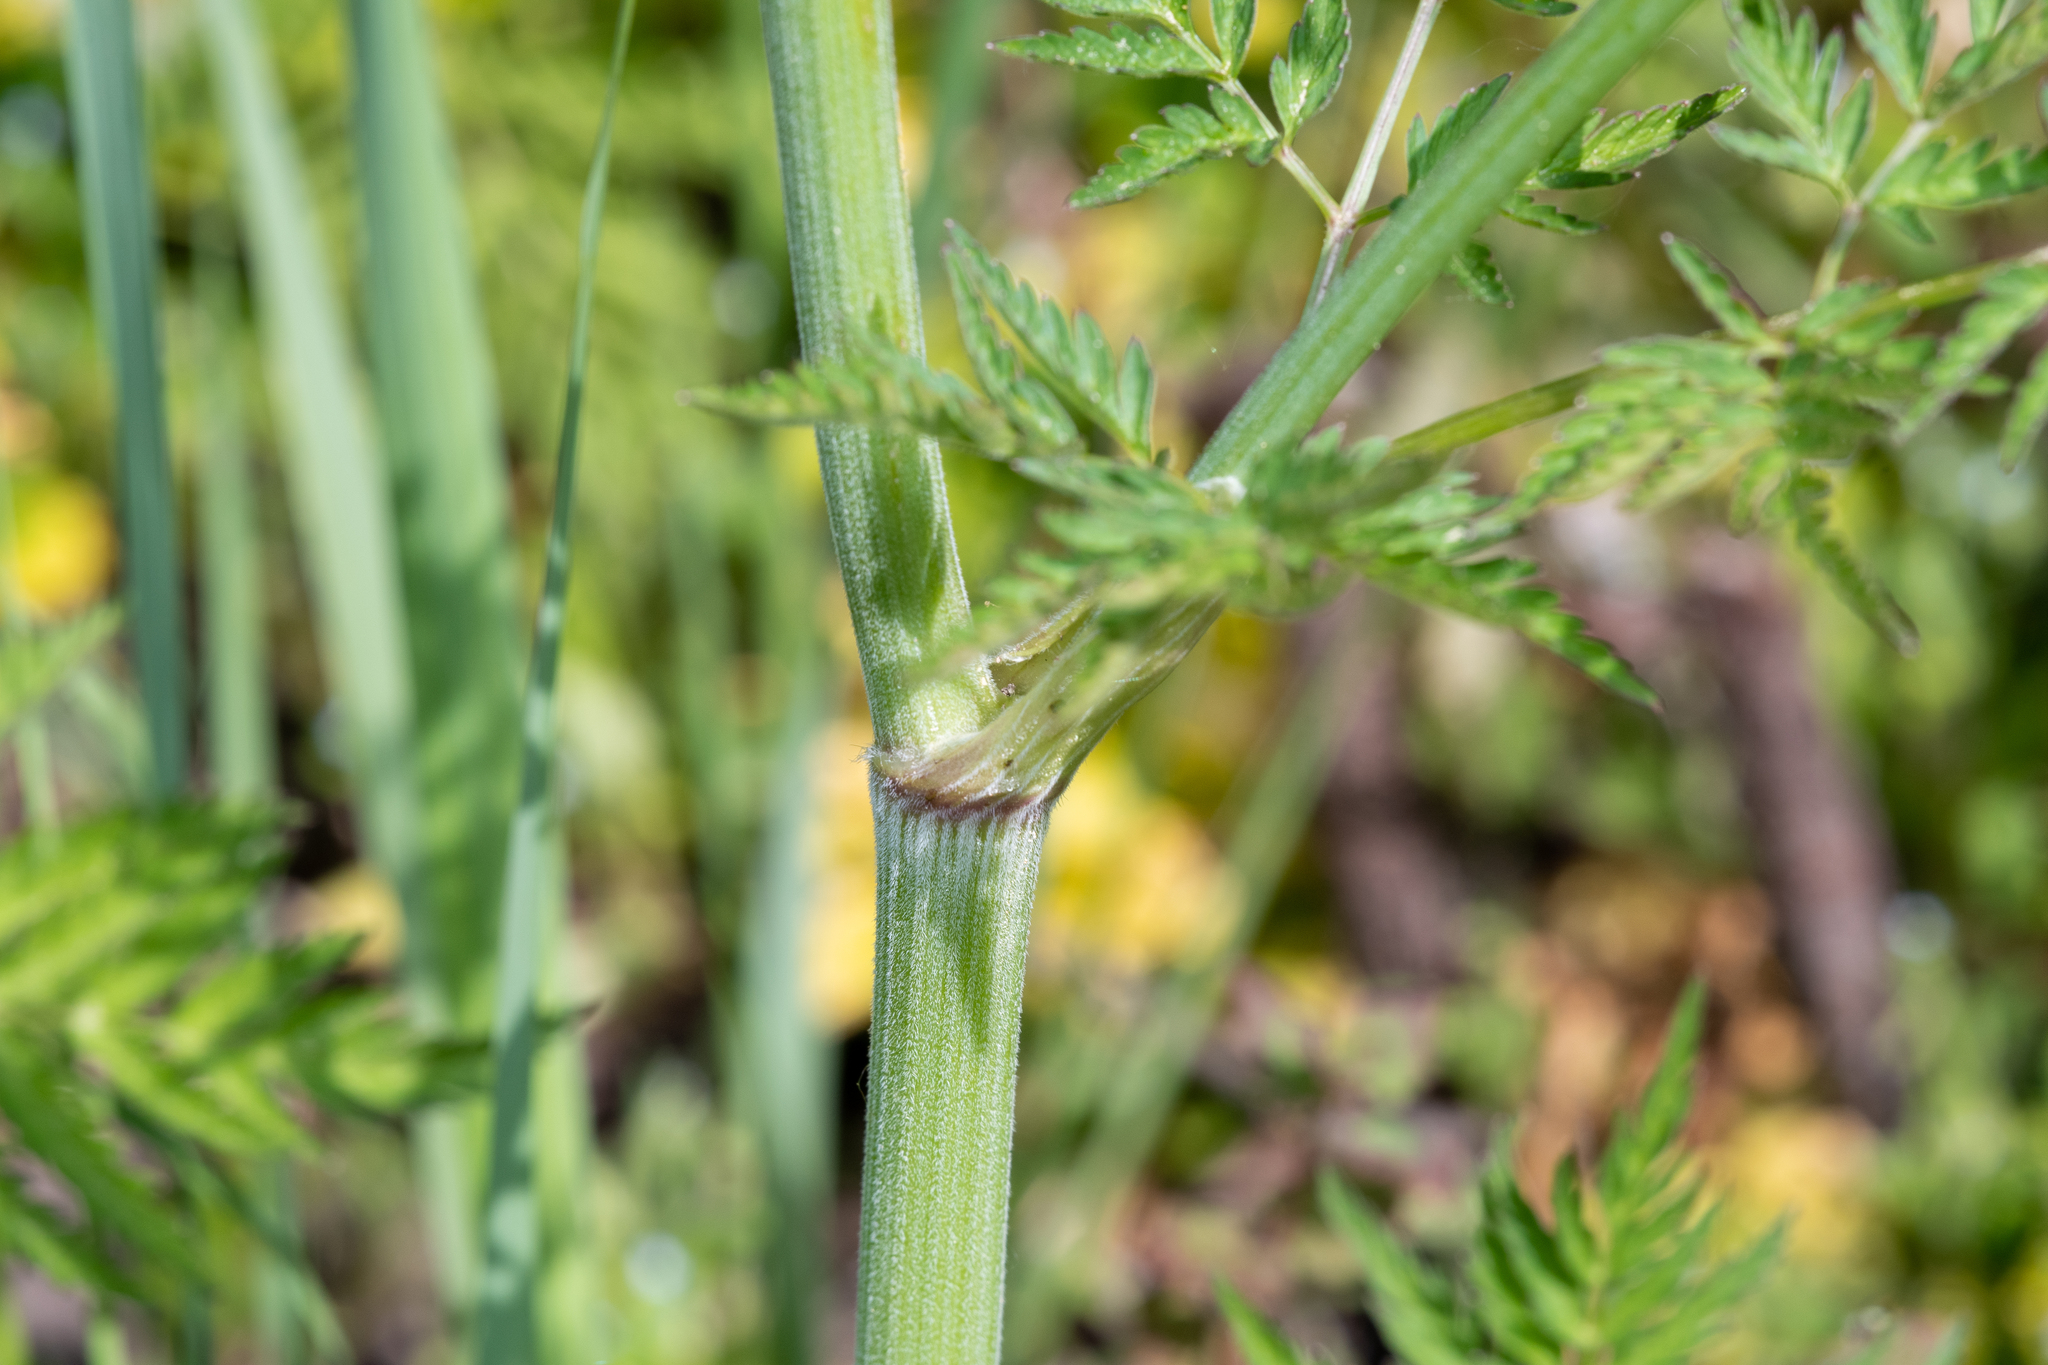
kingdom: Plantae
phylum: Tracheophyta
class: Magnoliopsida
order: Apiales
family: Apiaceae
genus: Anthriscus
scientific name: Anthriscus sylvestris
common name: Cow parsley
